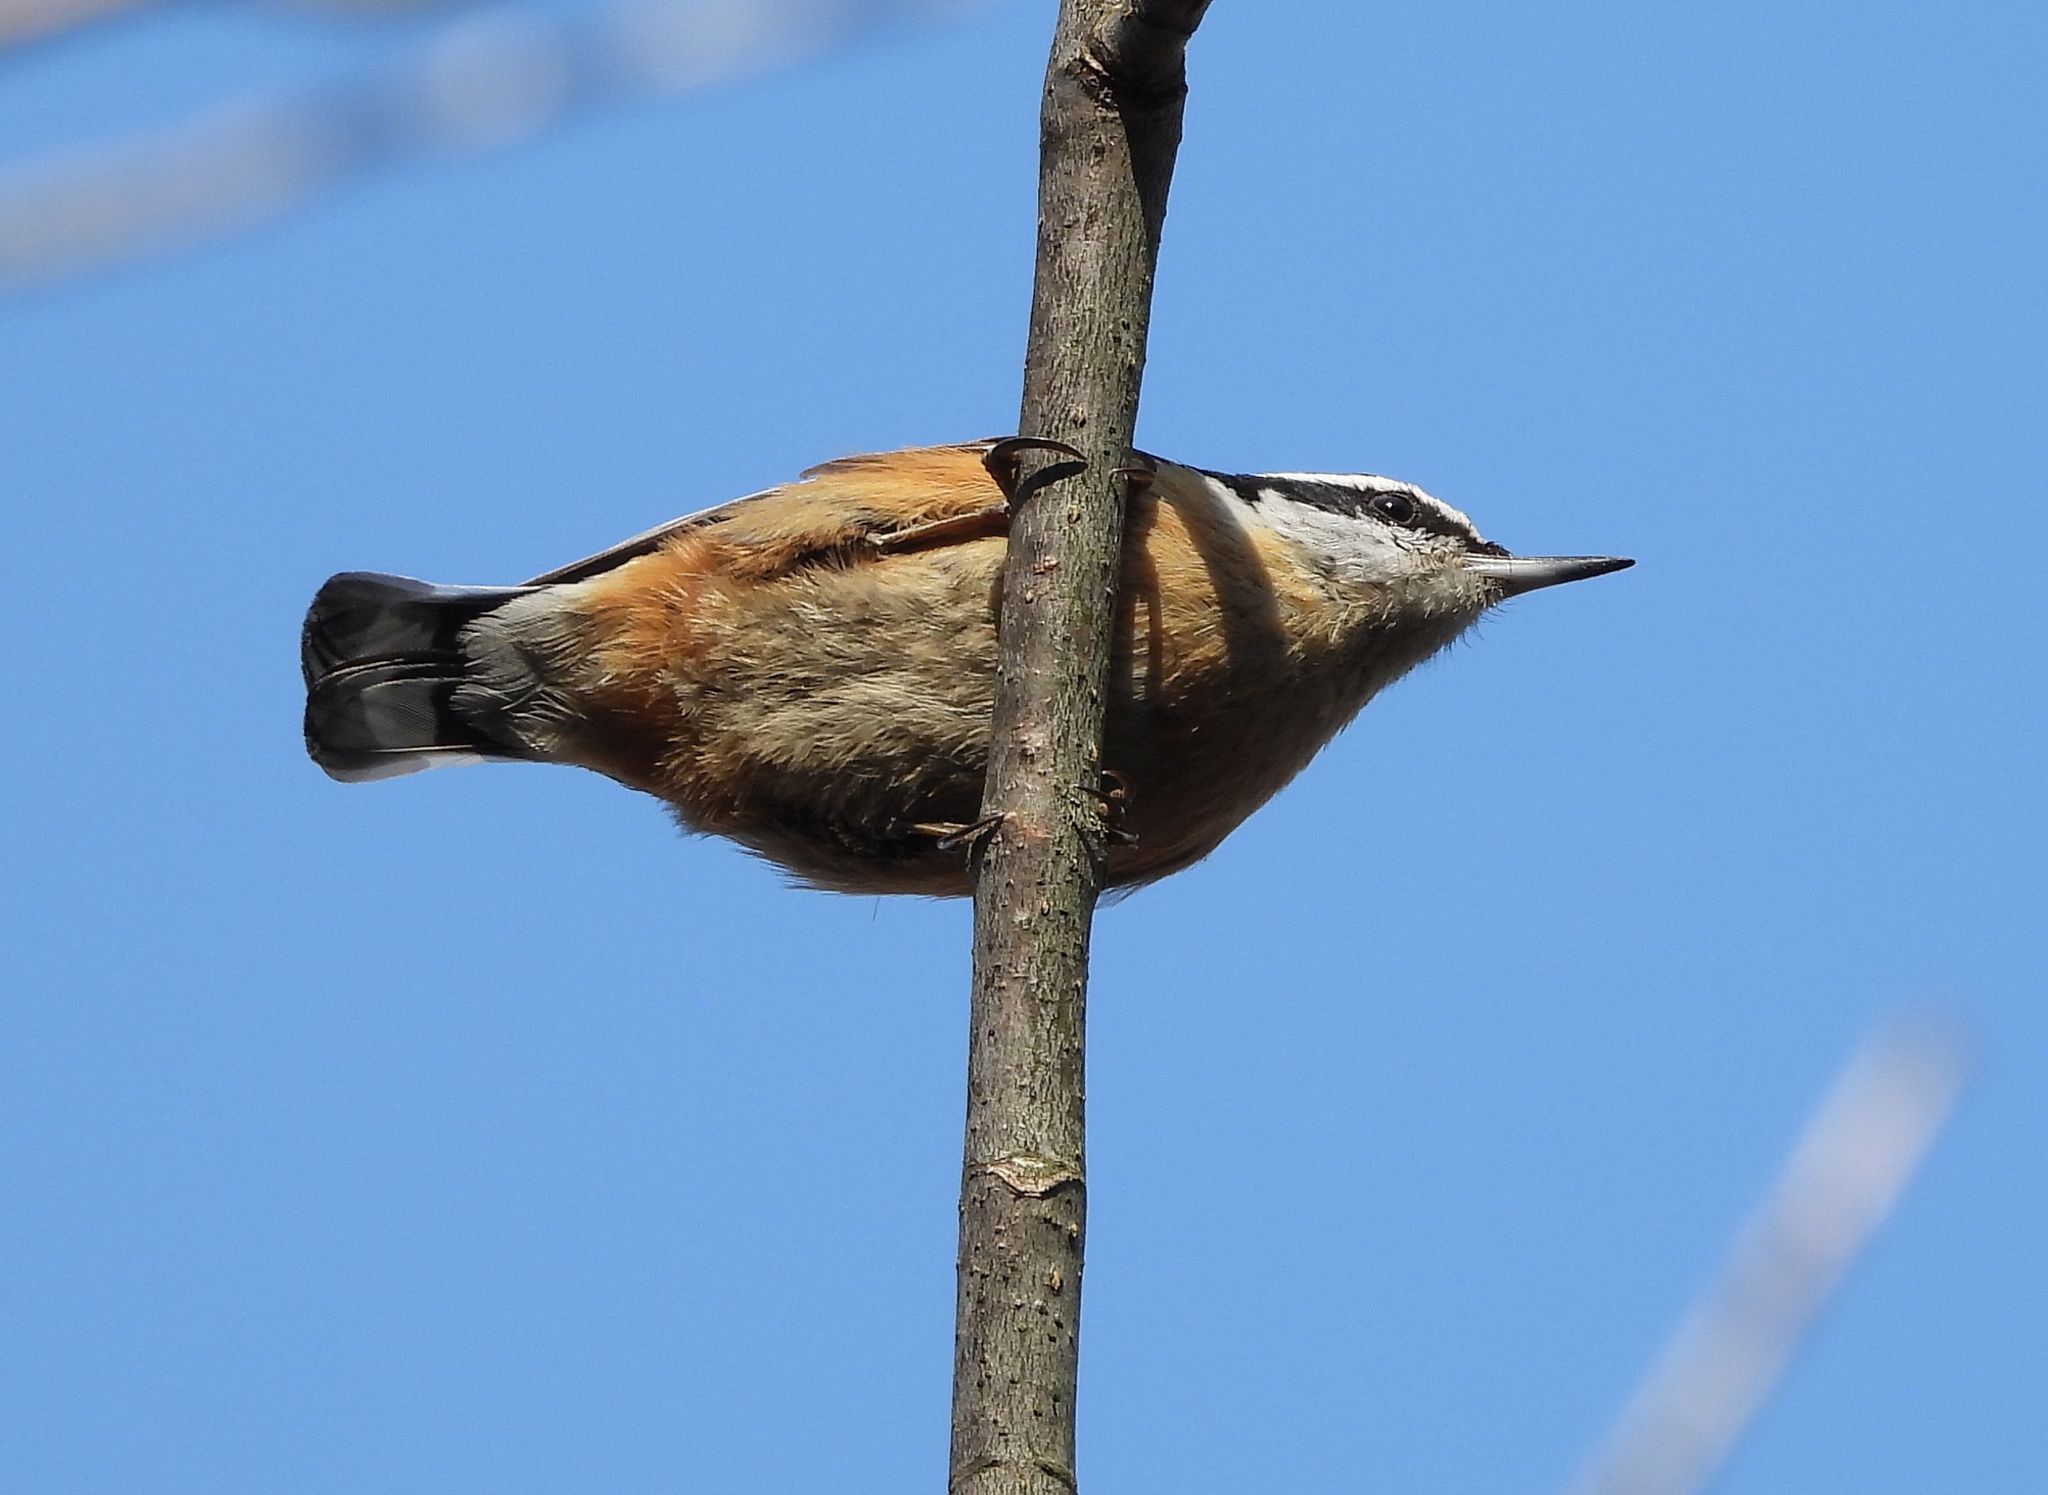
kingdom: Animalia
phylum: Chordata
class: Aves
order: Passeriformes
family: Sittidae
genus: Sitta
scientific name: Sitta canadensis
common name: Red-breasted nuthatch
